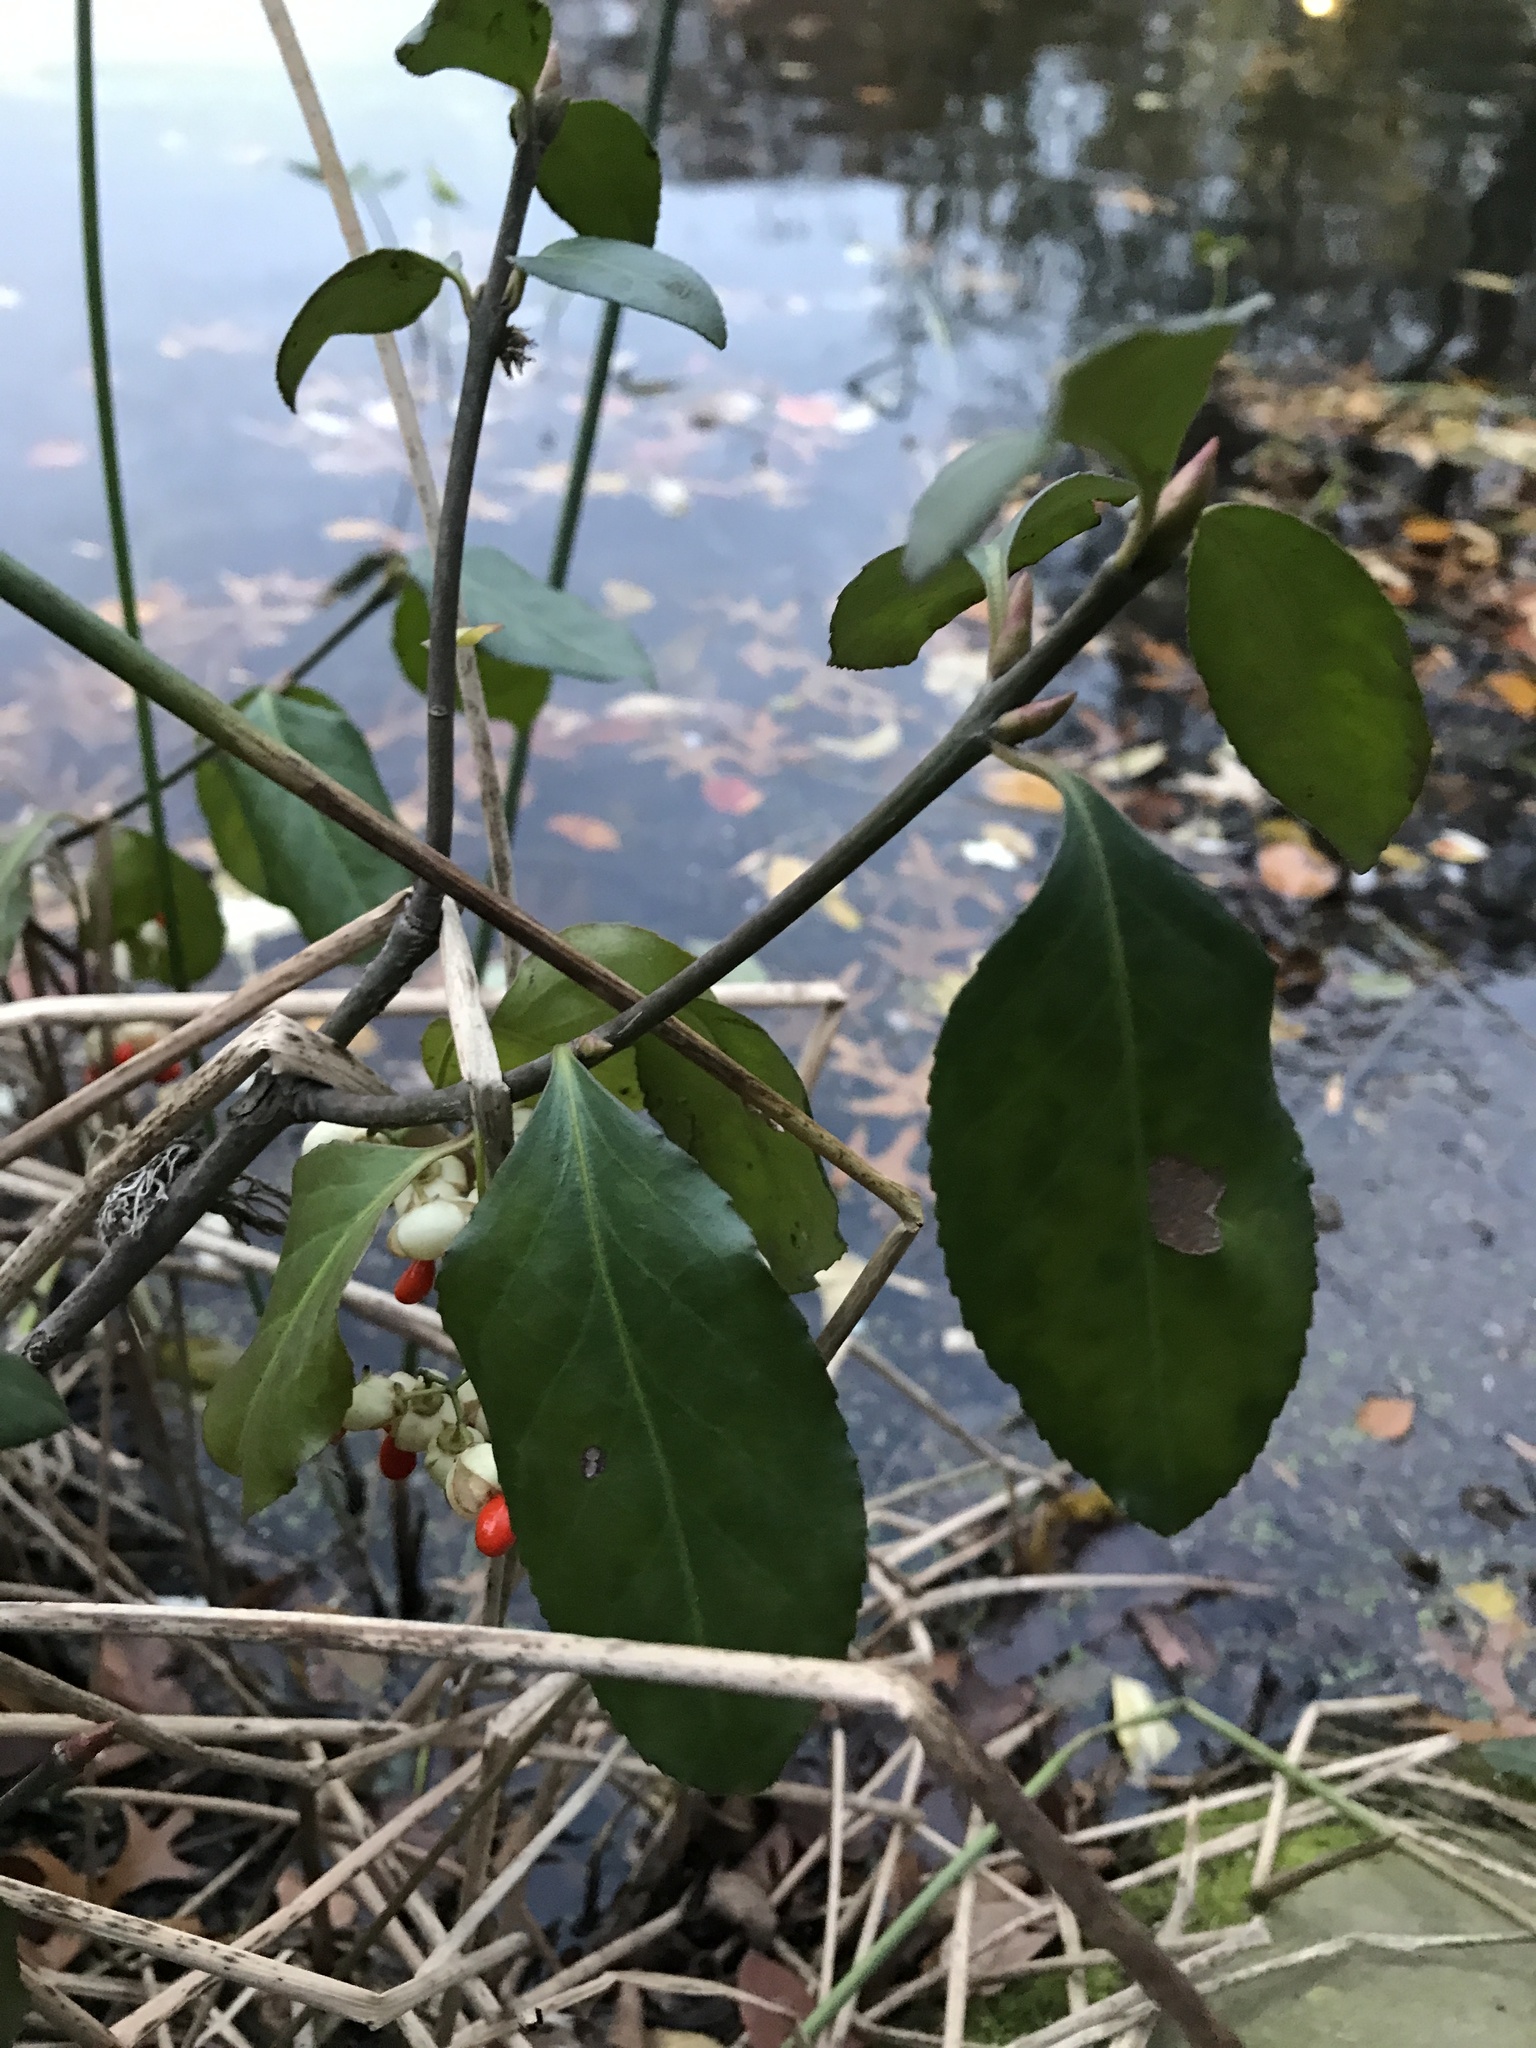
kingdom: Plantae
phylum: Tracheophyta
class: Magnoliopsida
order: Celastrales
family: Celastraceae
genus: Euonymus
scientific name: Euonymus fortunei
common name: Climbing euonymus
